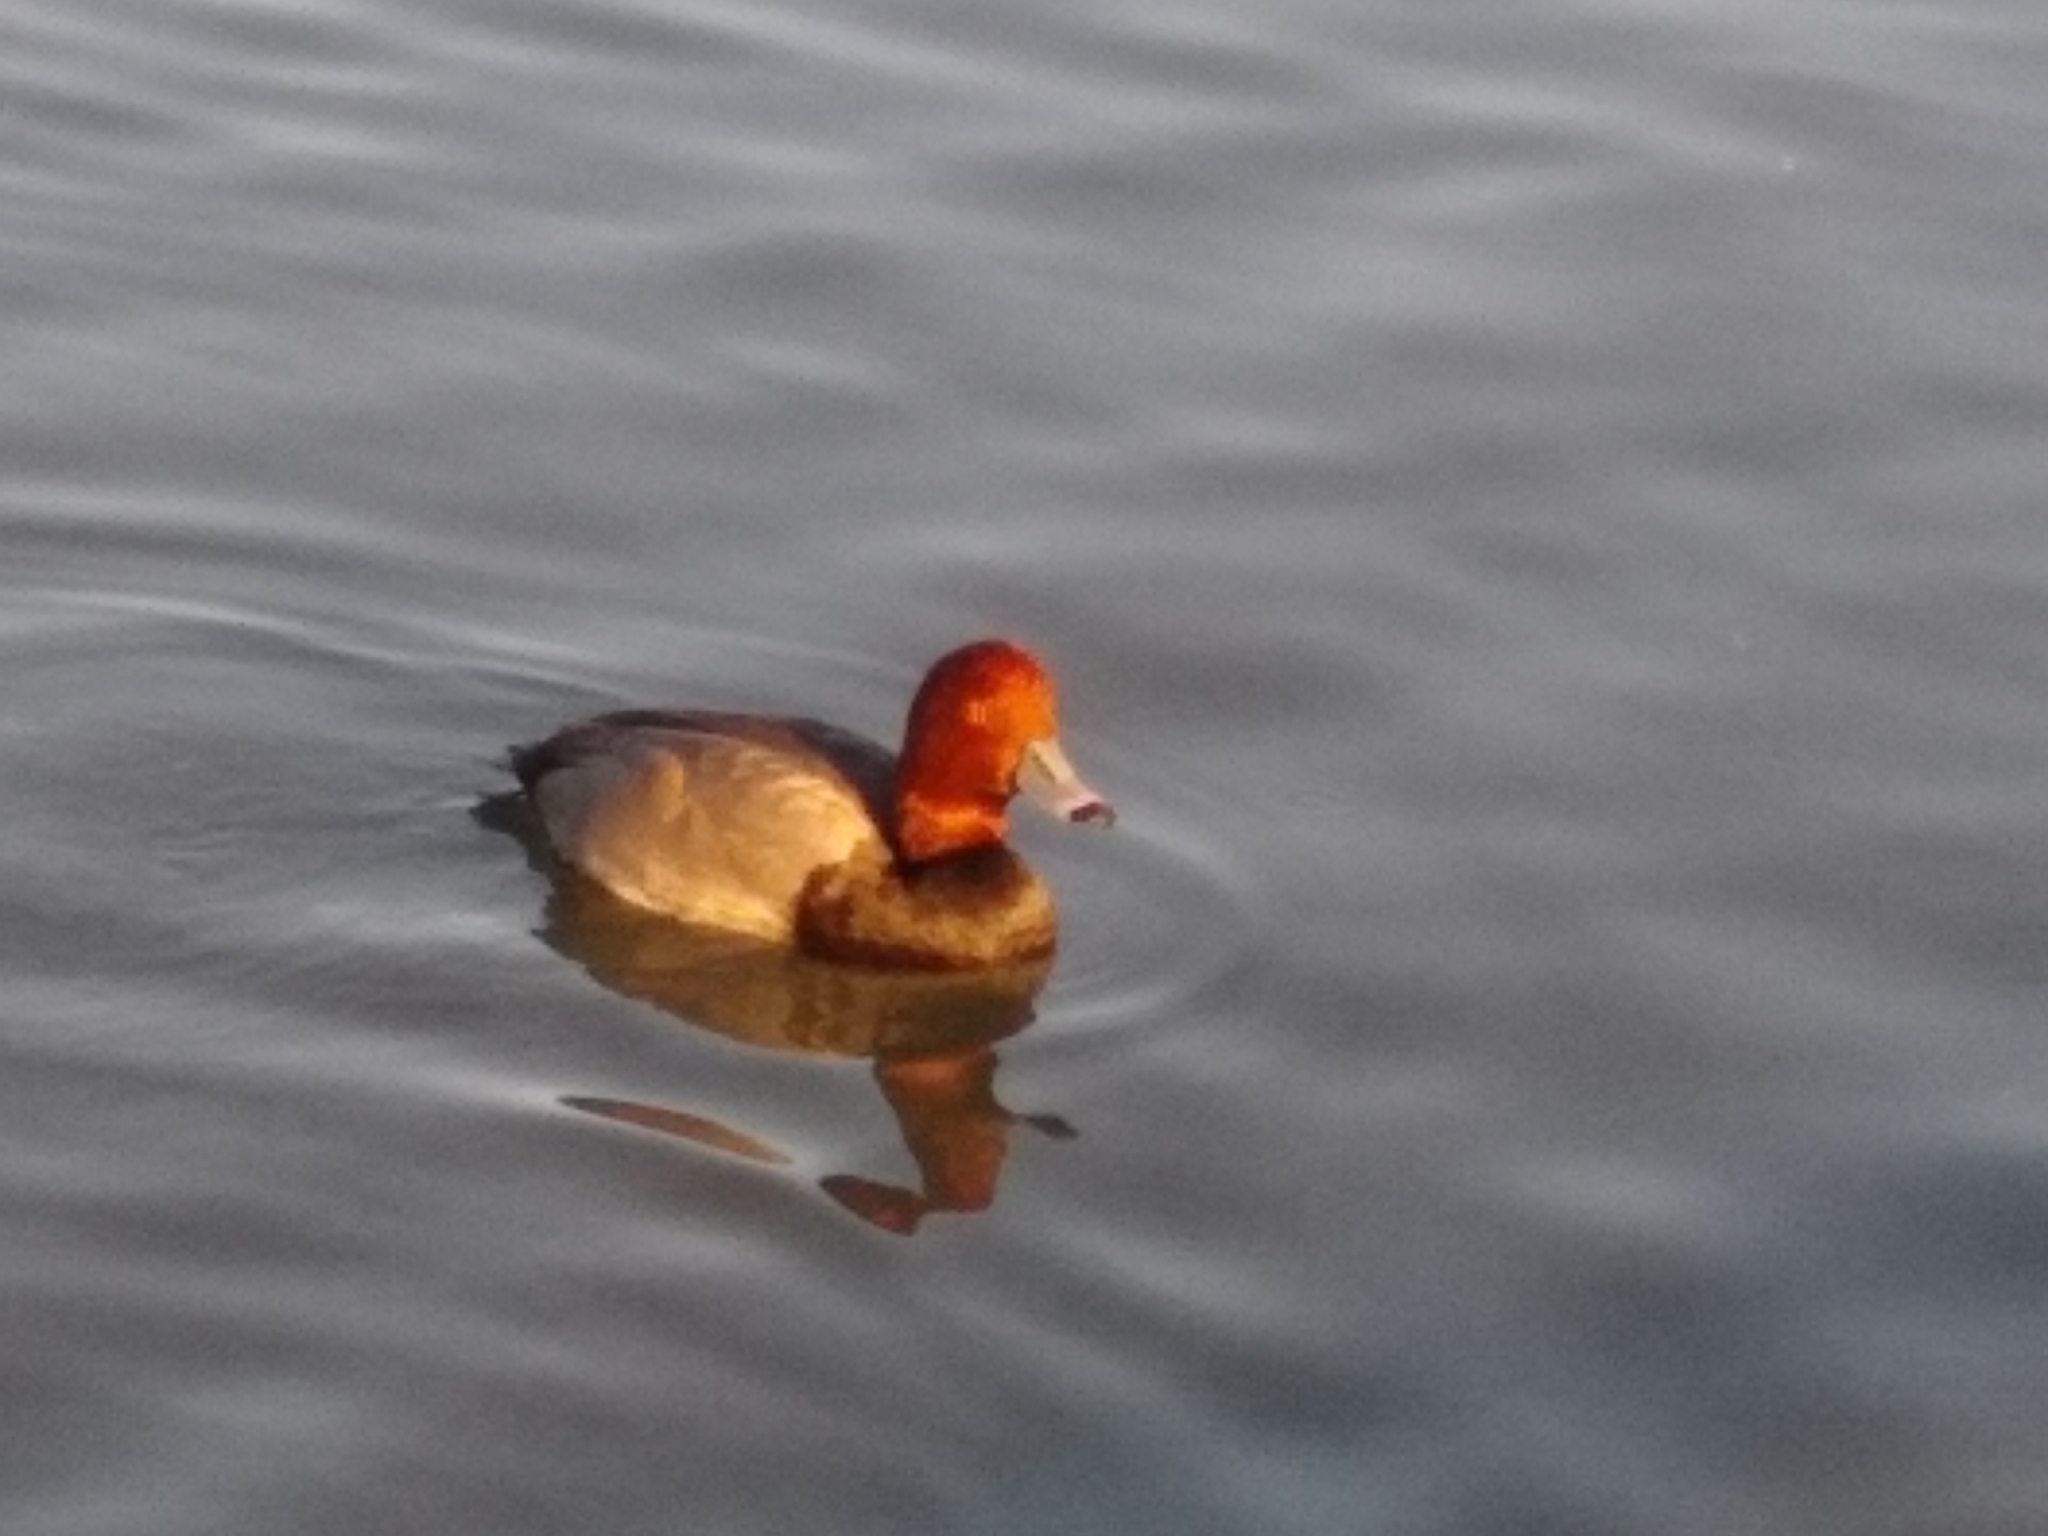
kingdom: Animalia
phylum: Chordata
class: Aves
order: Anseriformes
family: Anatidae
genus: Aythya
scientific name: Aythya americana
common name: Redhead
